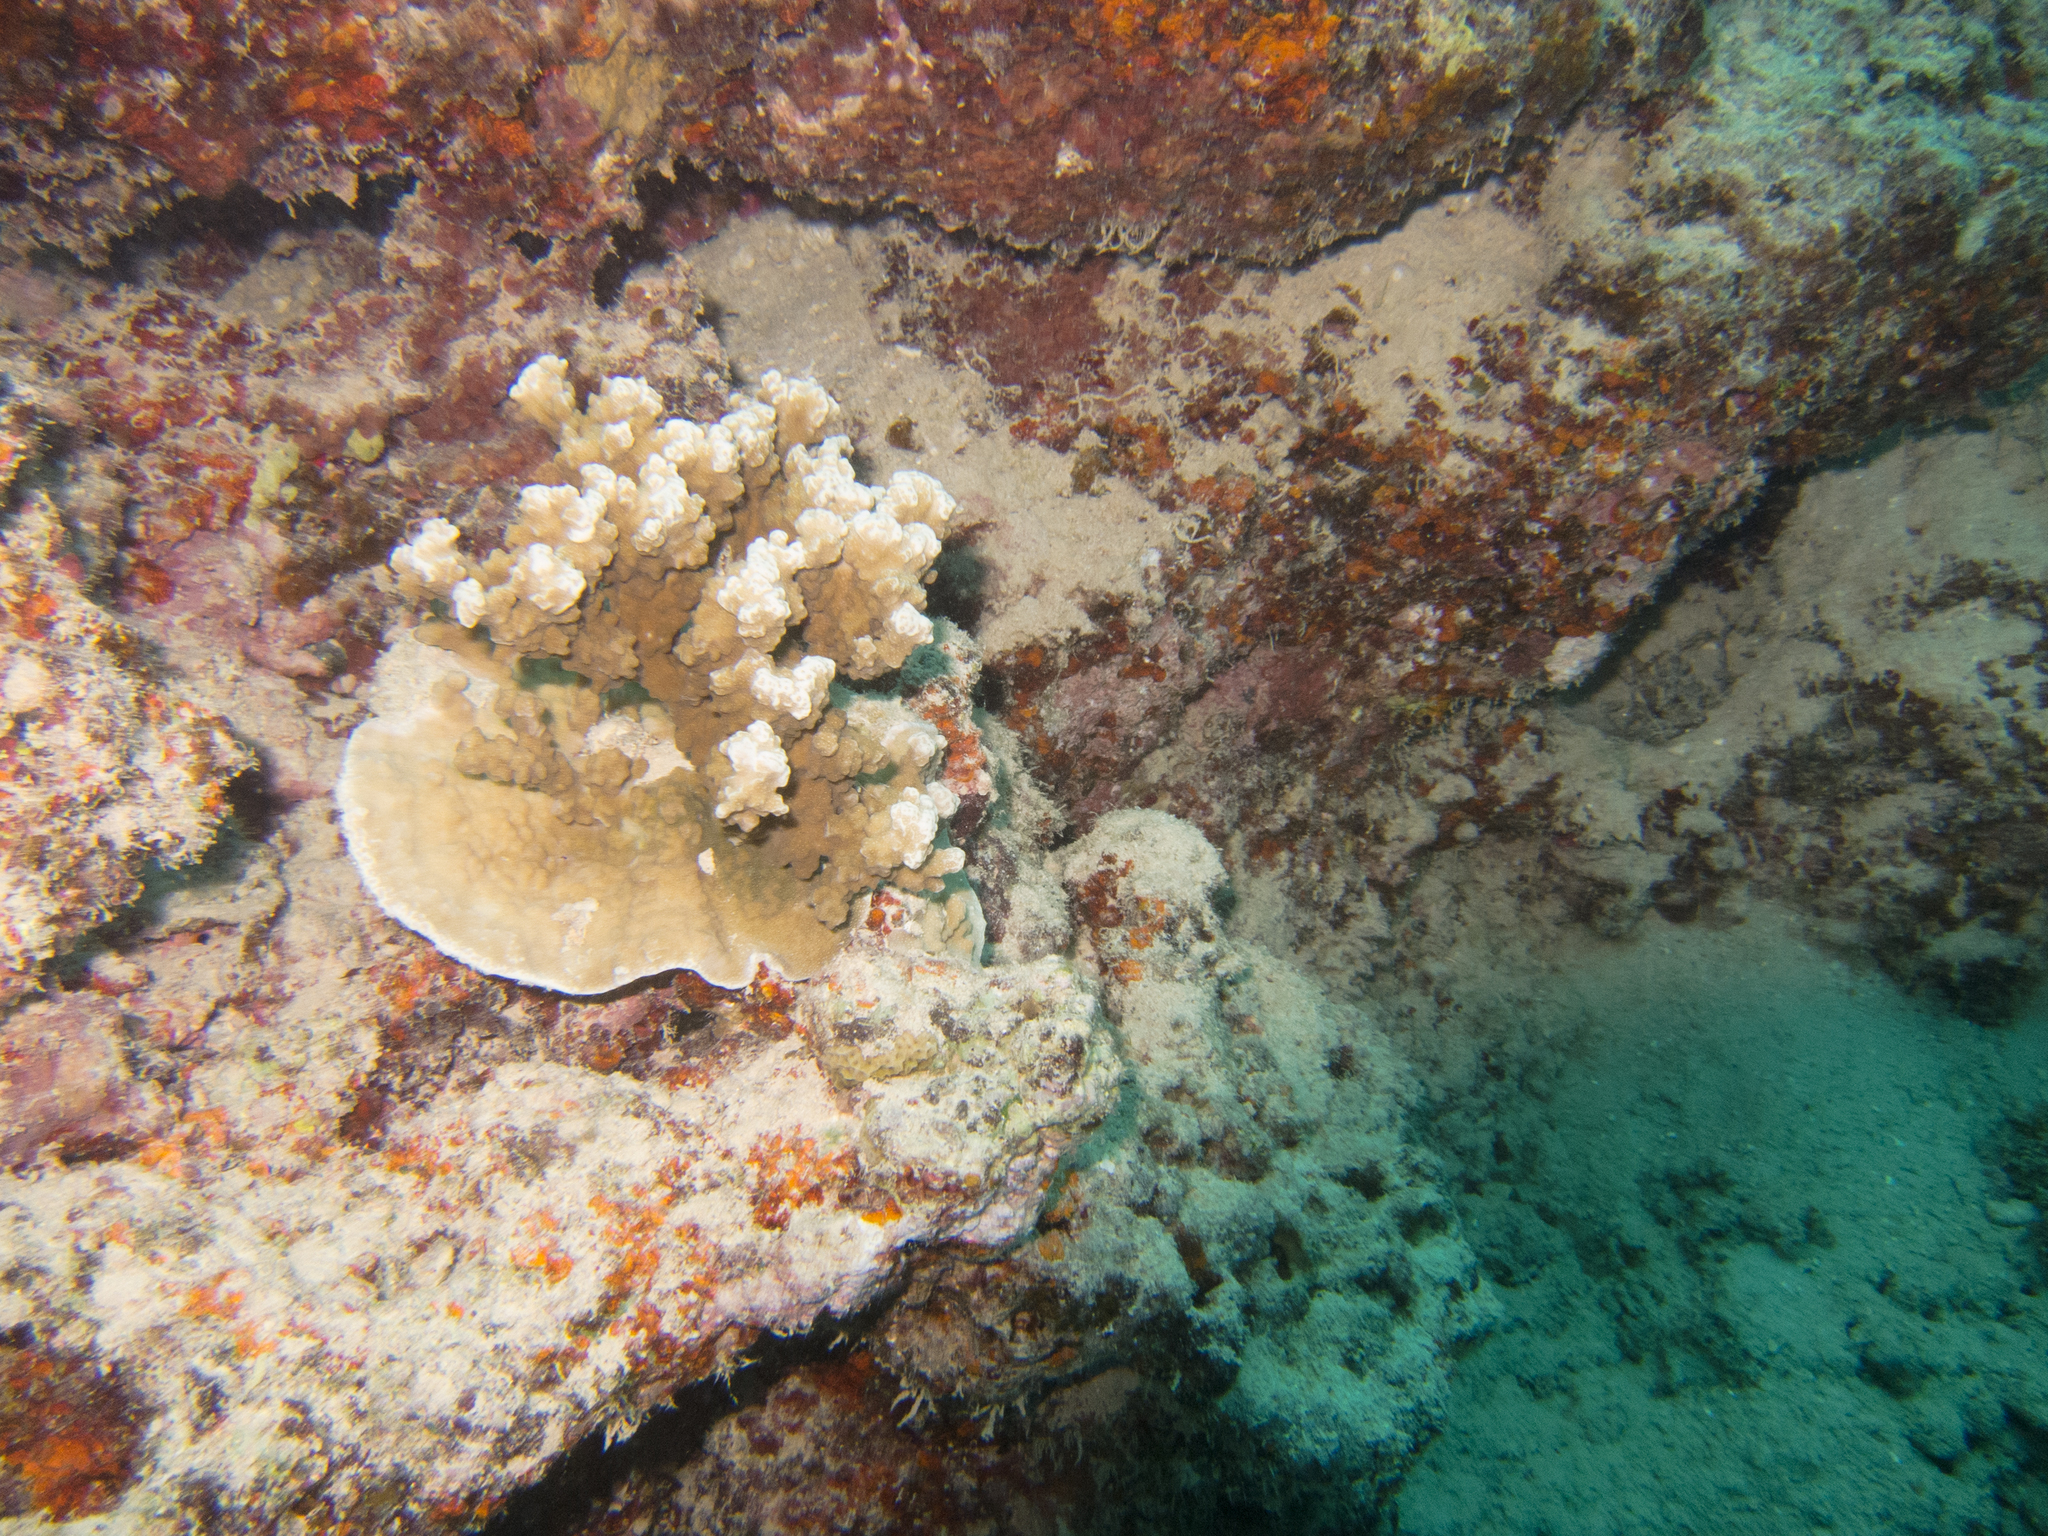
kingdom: Animalia
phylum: Cnidaria
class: Anthozoa
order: Scleractinia
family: Poritidae
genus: Porites
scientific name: Porites rus
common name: Hump coral
